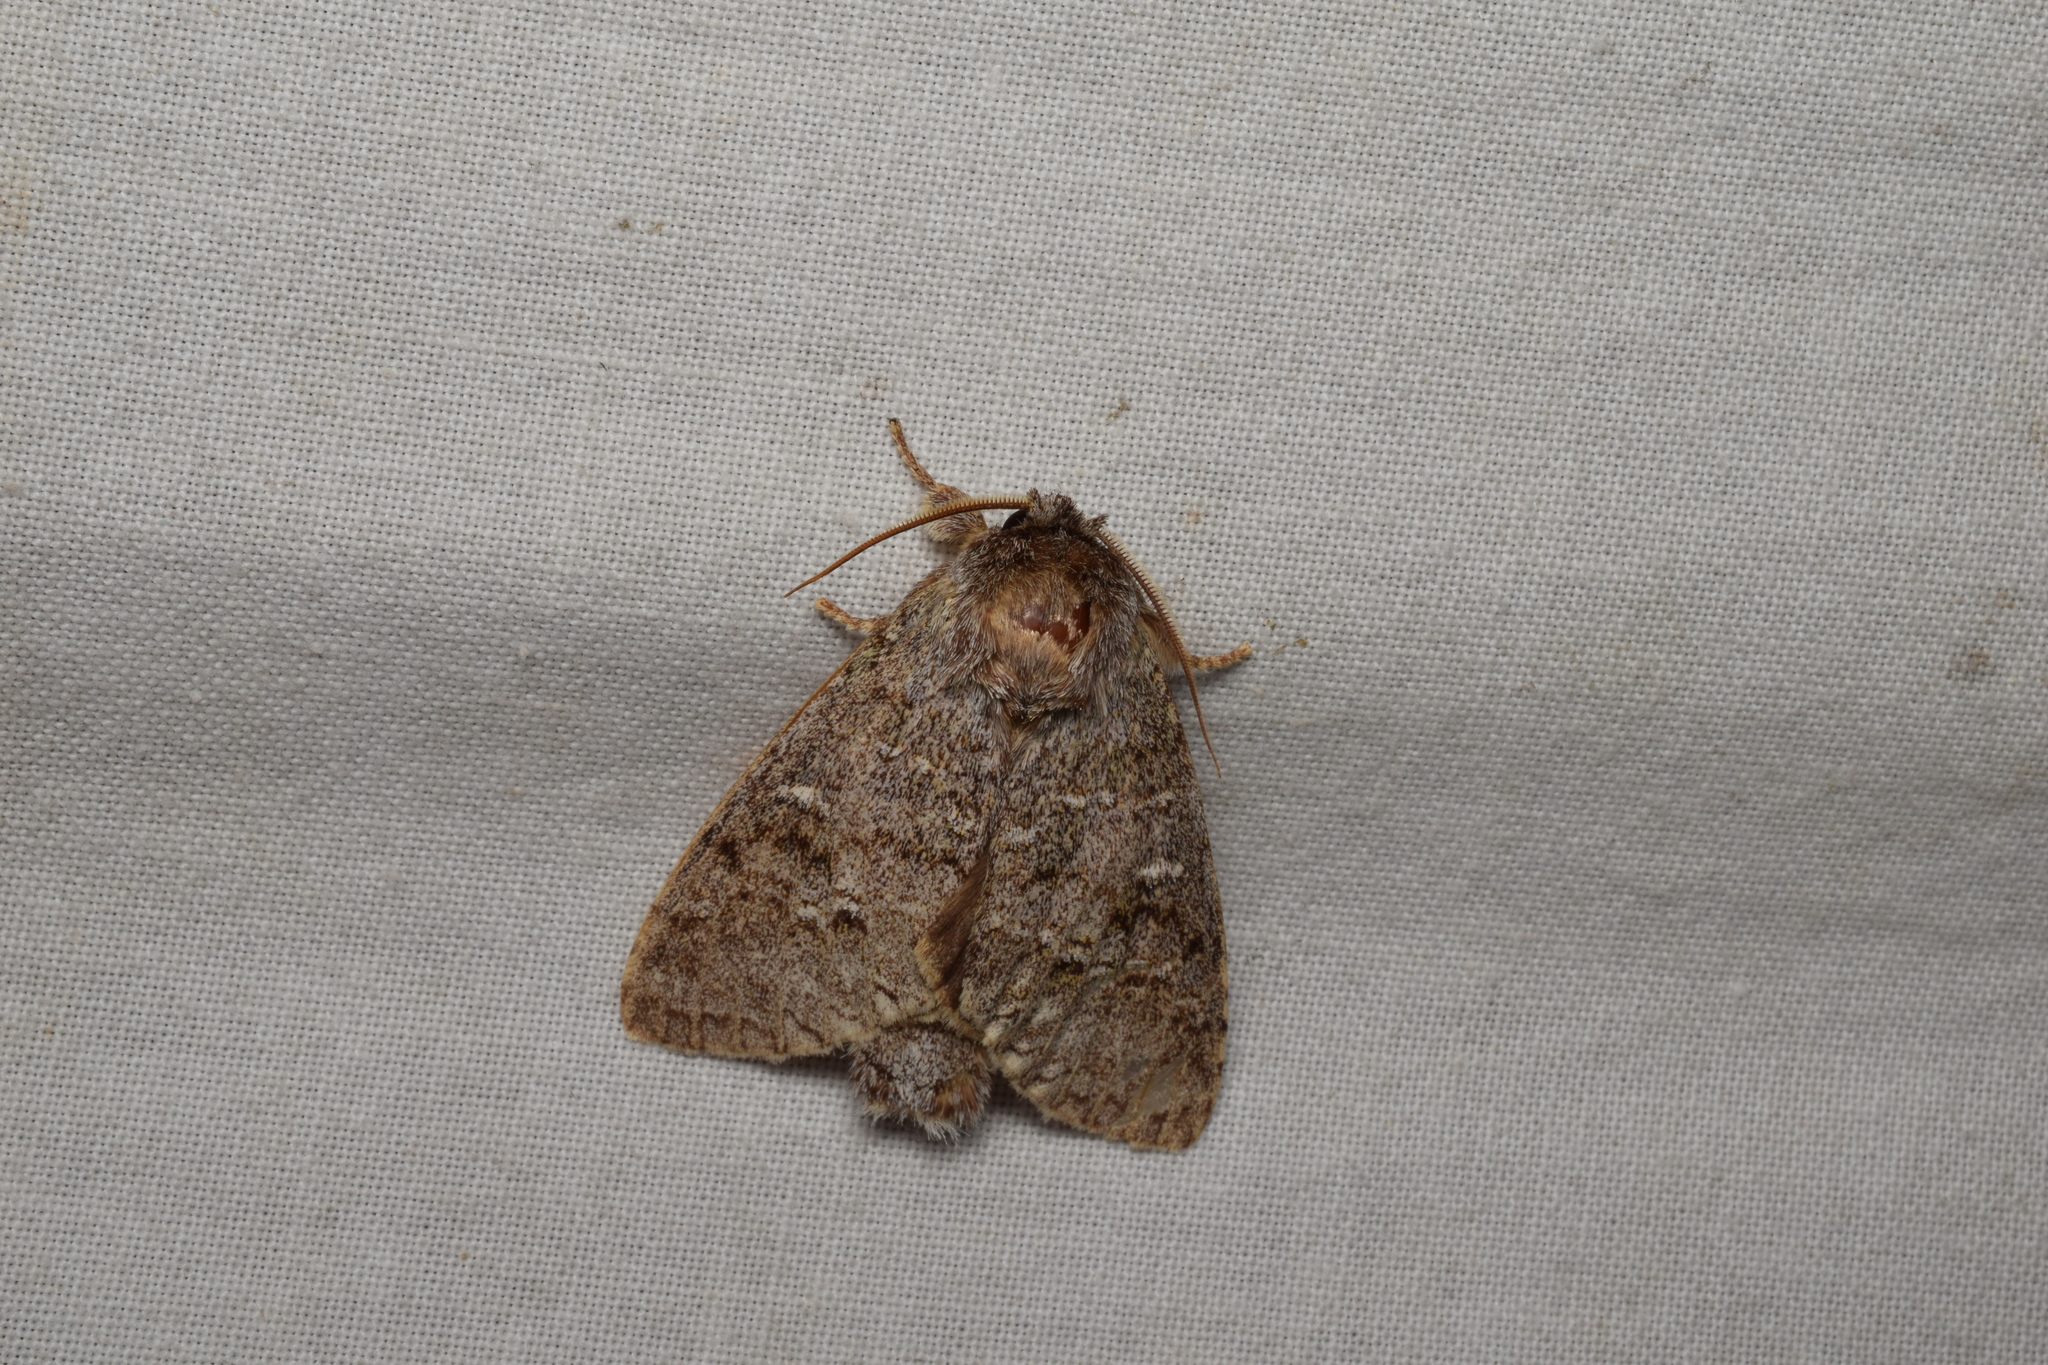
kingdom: Animalia
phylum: Arthropoda
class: Insecta
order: Lepidoptera
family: Notodontidae
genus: Mesophalera
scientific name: Mesophalera sigmata
